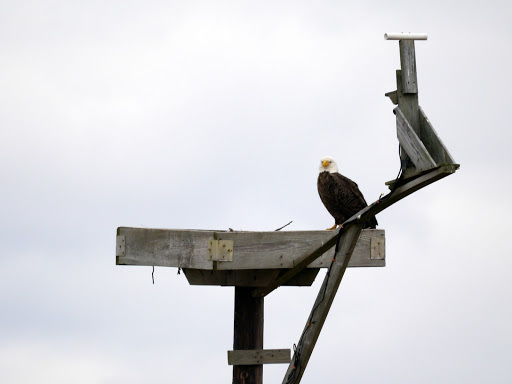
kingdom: Animalia
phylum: Chordata
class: Aves
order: Accipitriformes
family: Accipitridae
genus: Haliaeetus
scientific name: Haliaeetus leucocephalus
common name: Bald eagle
